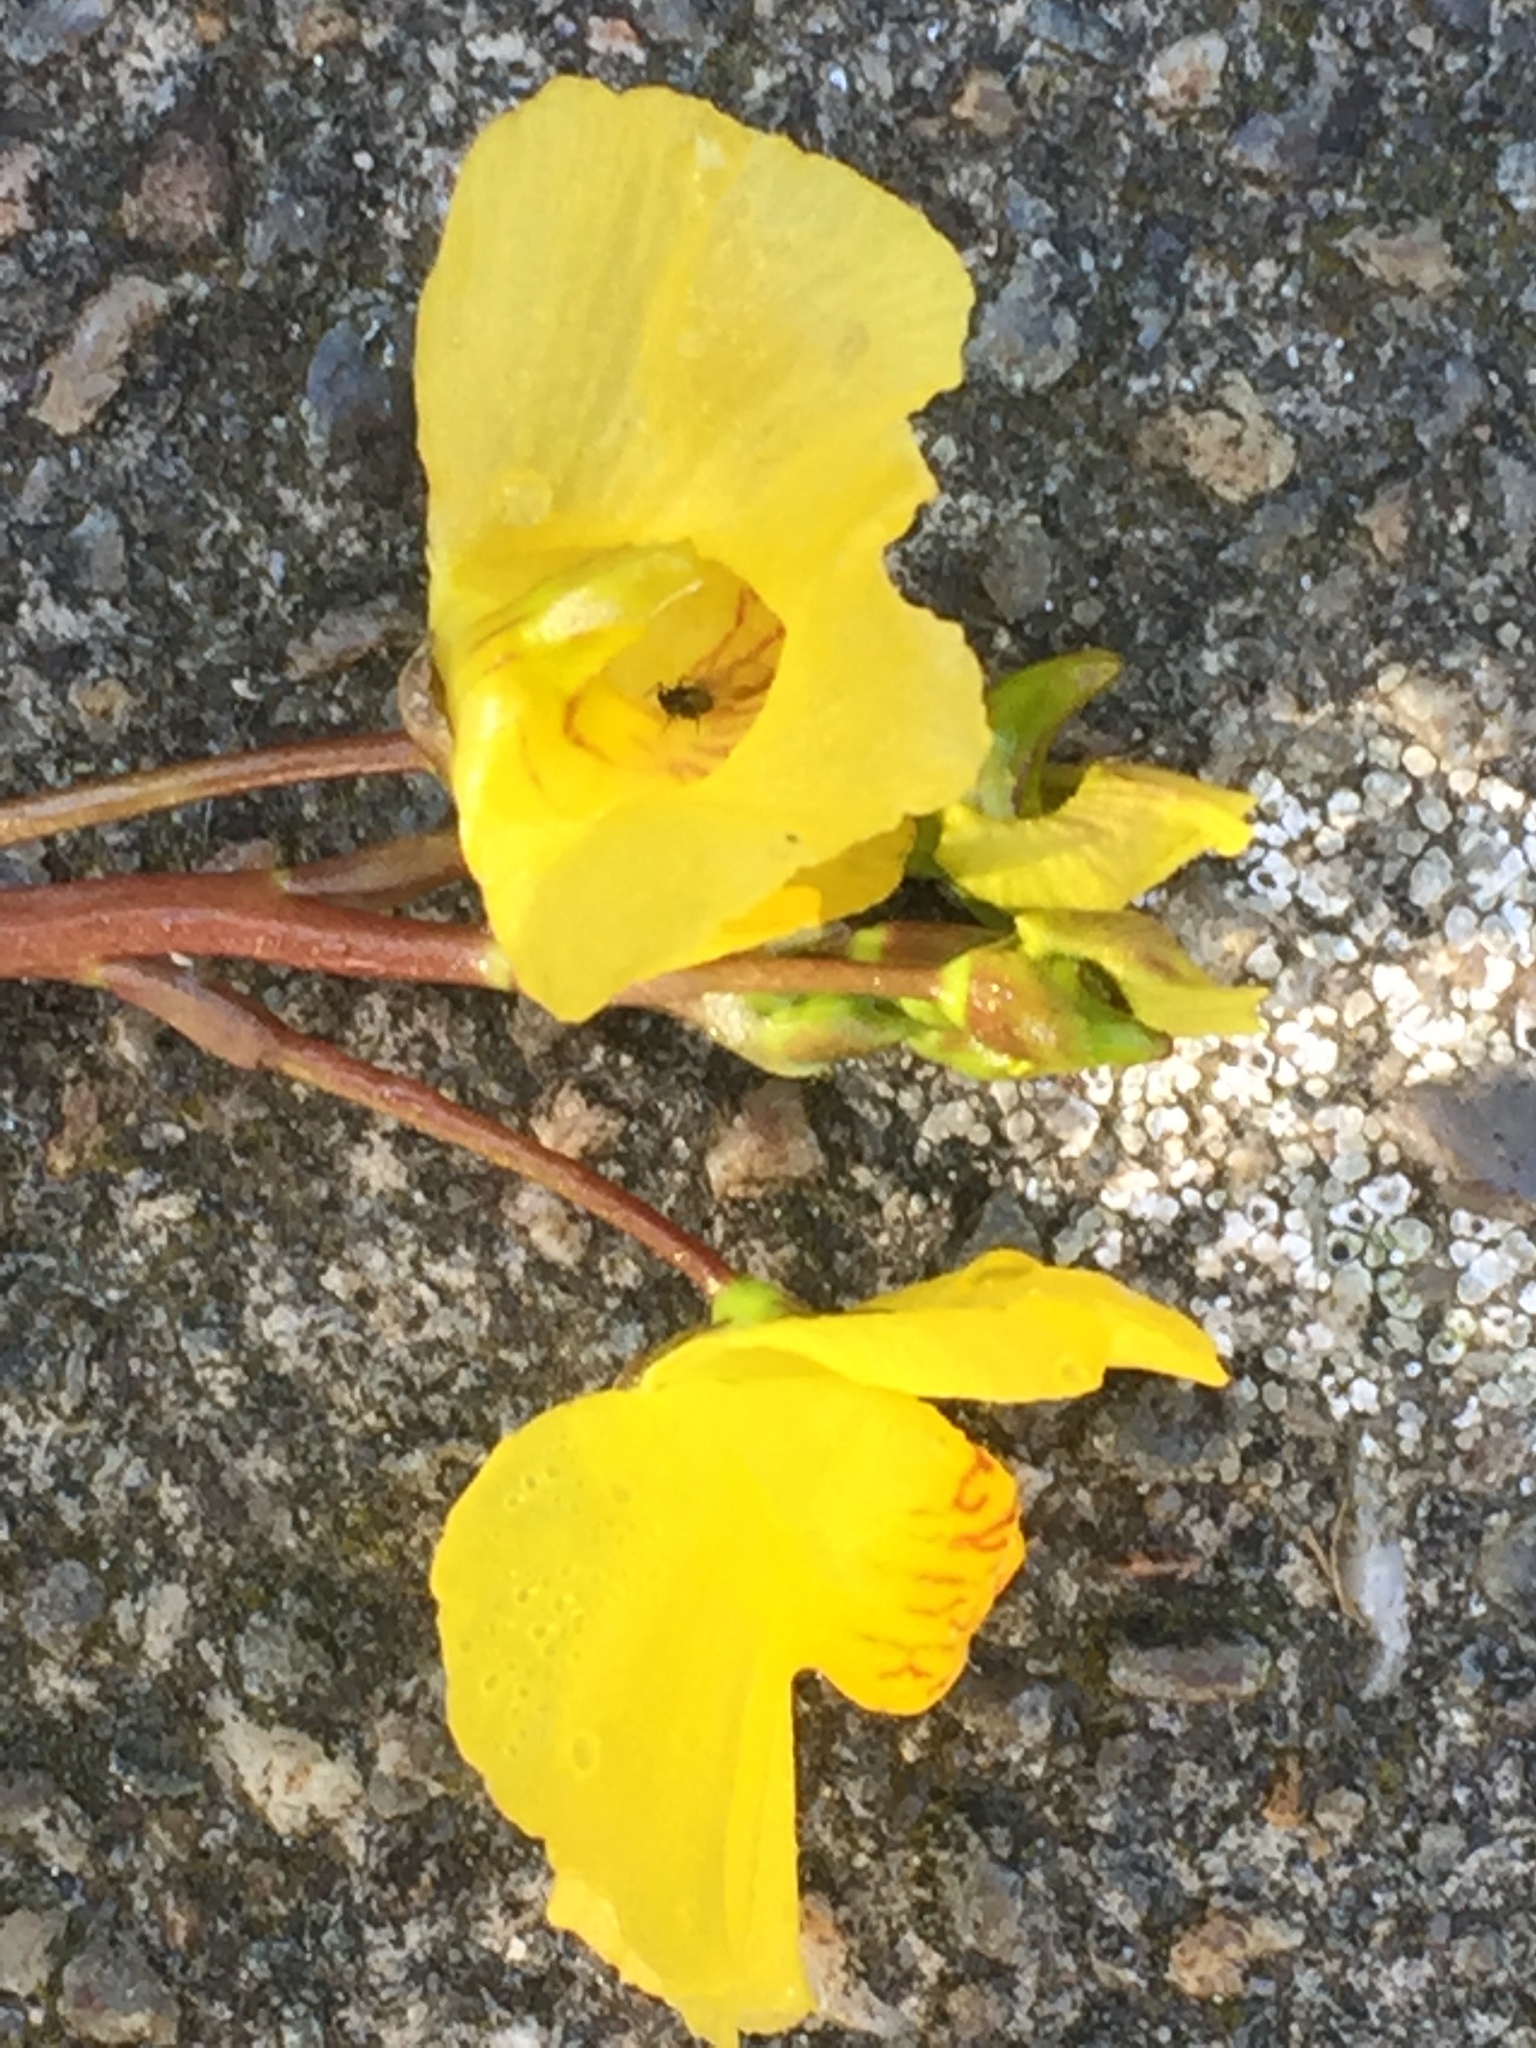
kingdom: Plantae
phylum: Tracheophyta
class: Magnoliopsida
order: Lamiales
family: Lentibulariaceae
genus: Utricularia
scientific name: Utricularia australis
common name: Bladderwort
